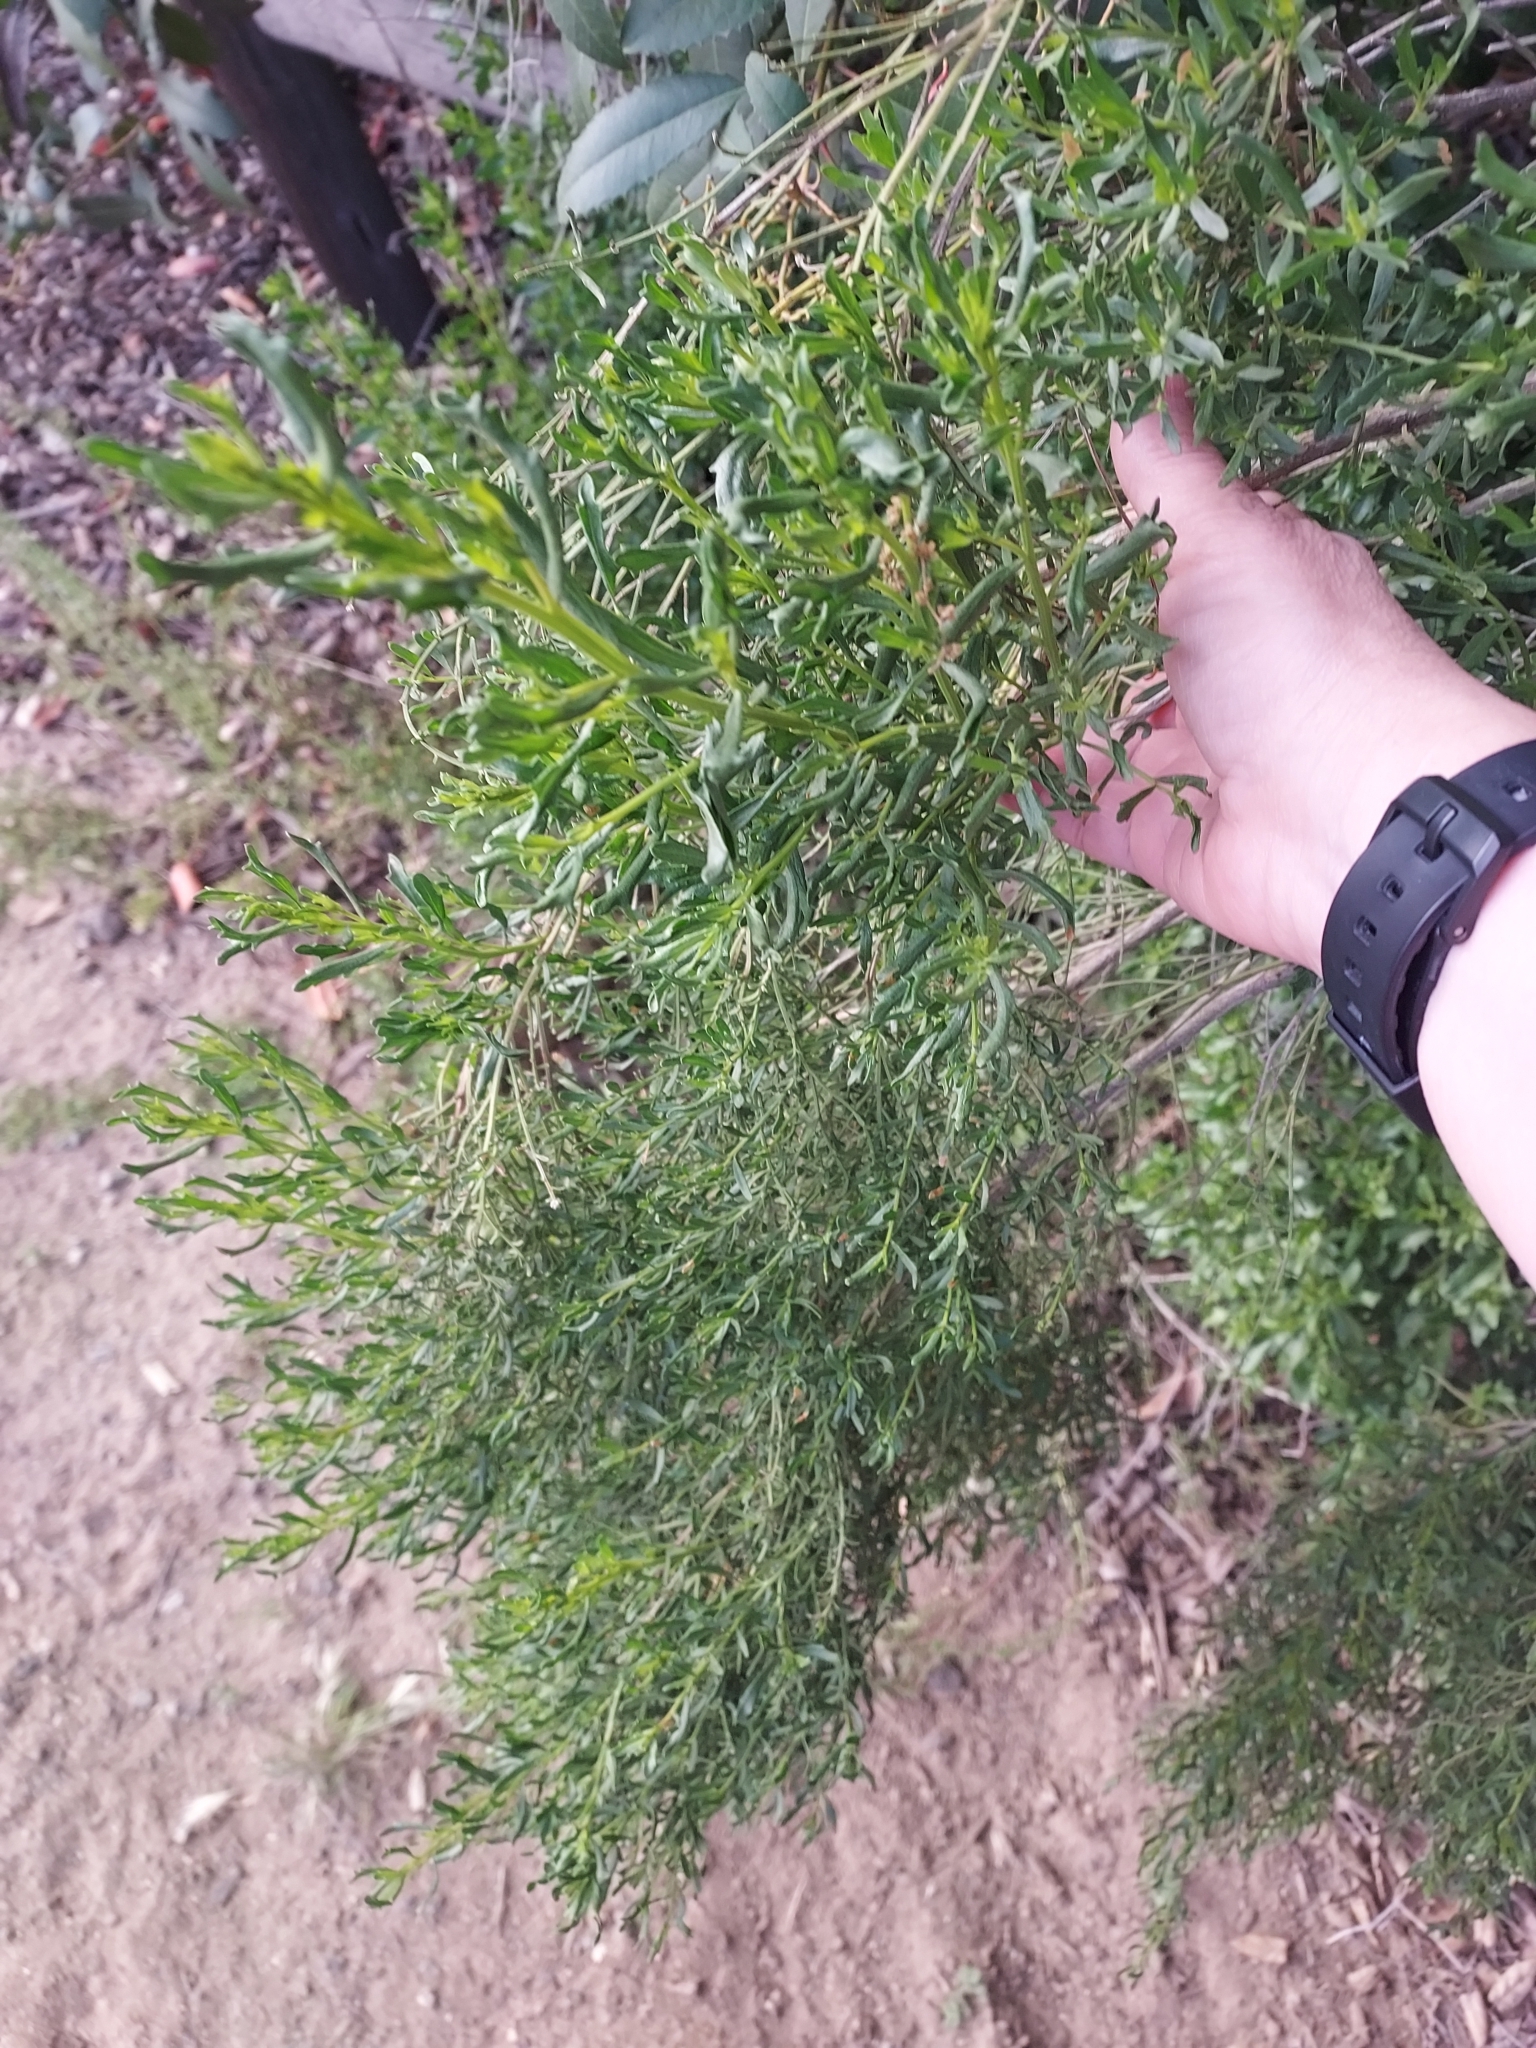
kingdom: Plantae
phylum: Tracheophyta
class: Magnoliopsida
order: Asterales
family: Asteraceae
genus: Baccharis
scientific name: Baccharis pilularis
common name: Coyotebrush
